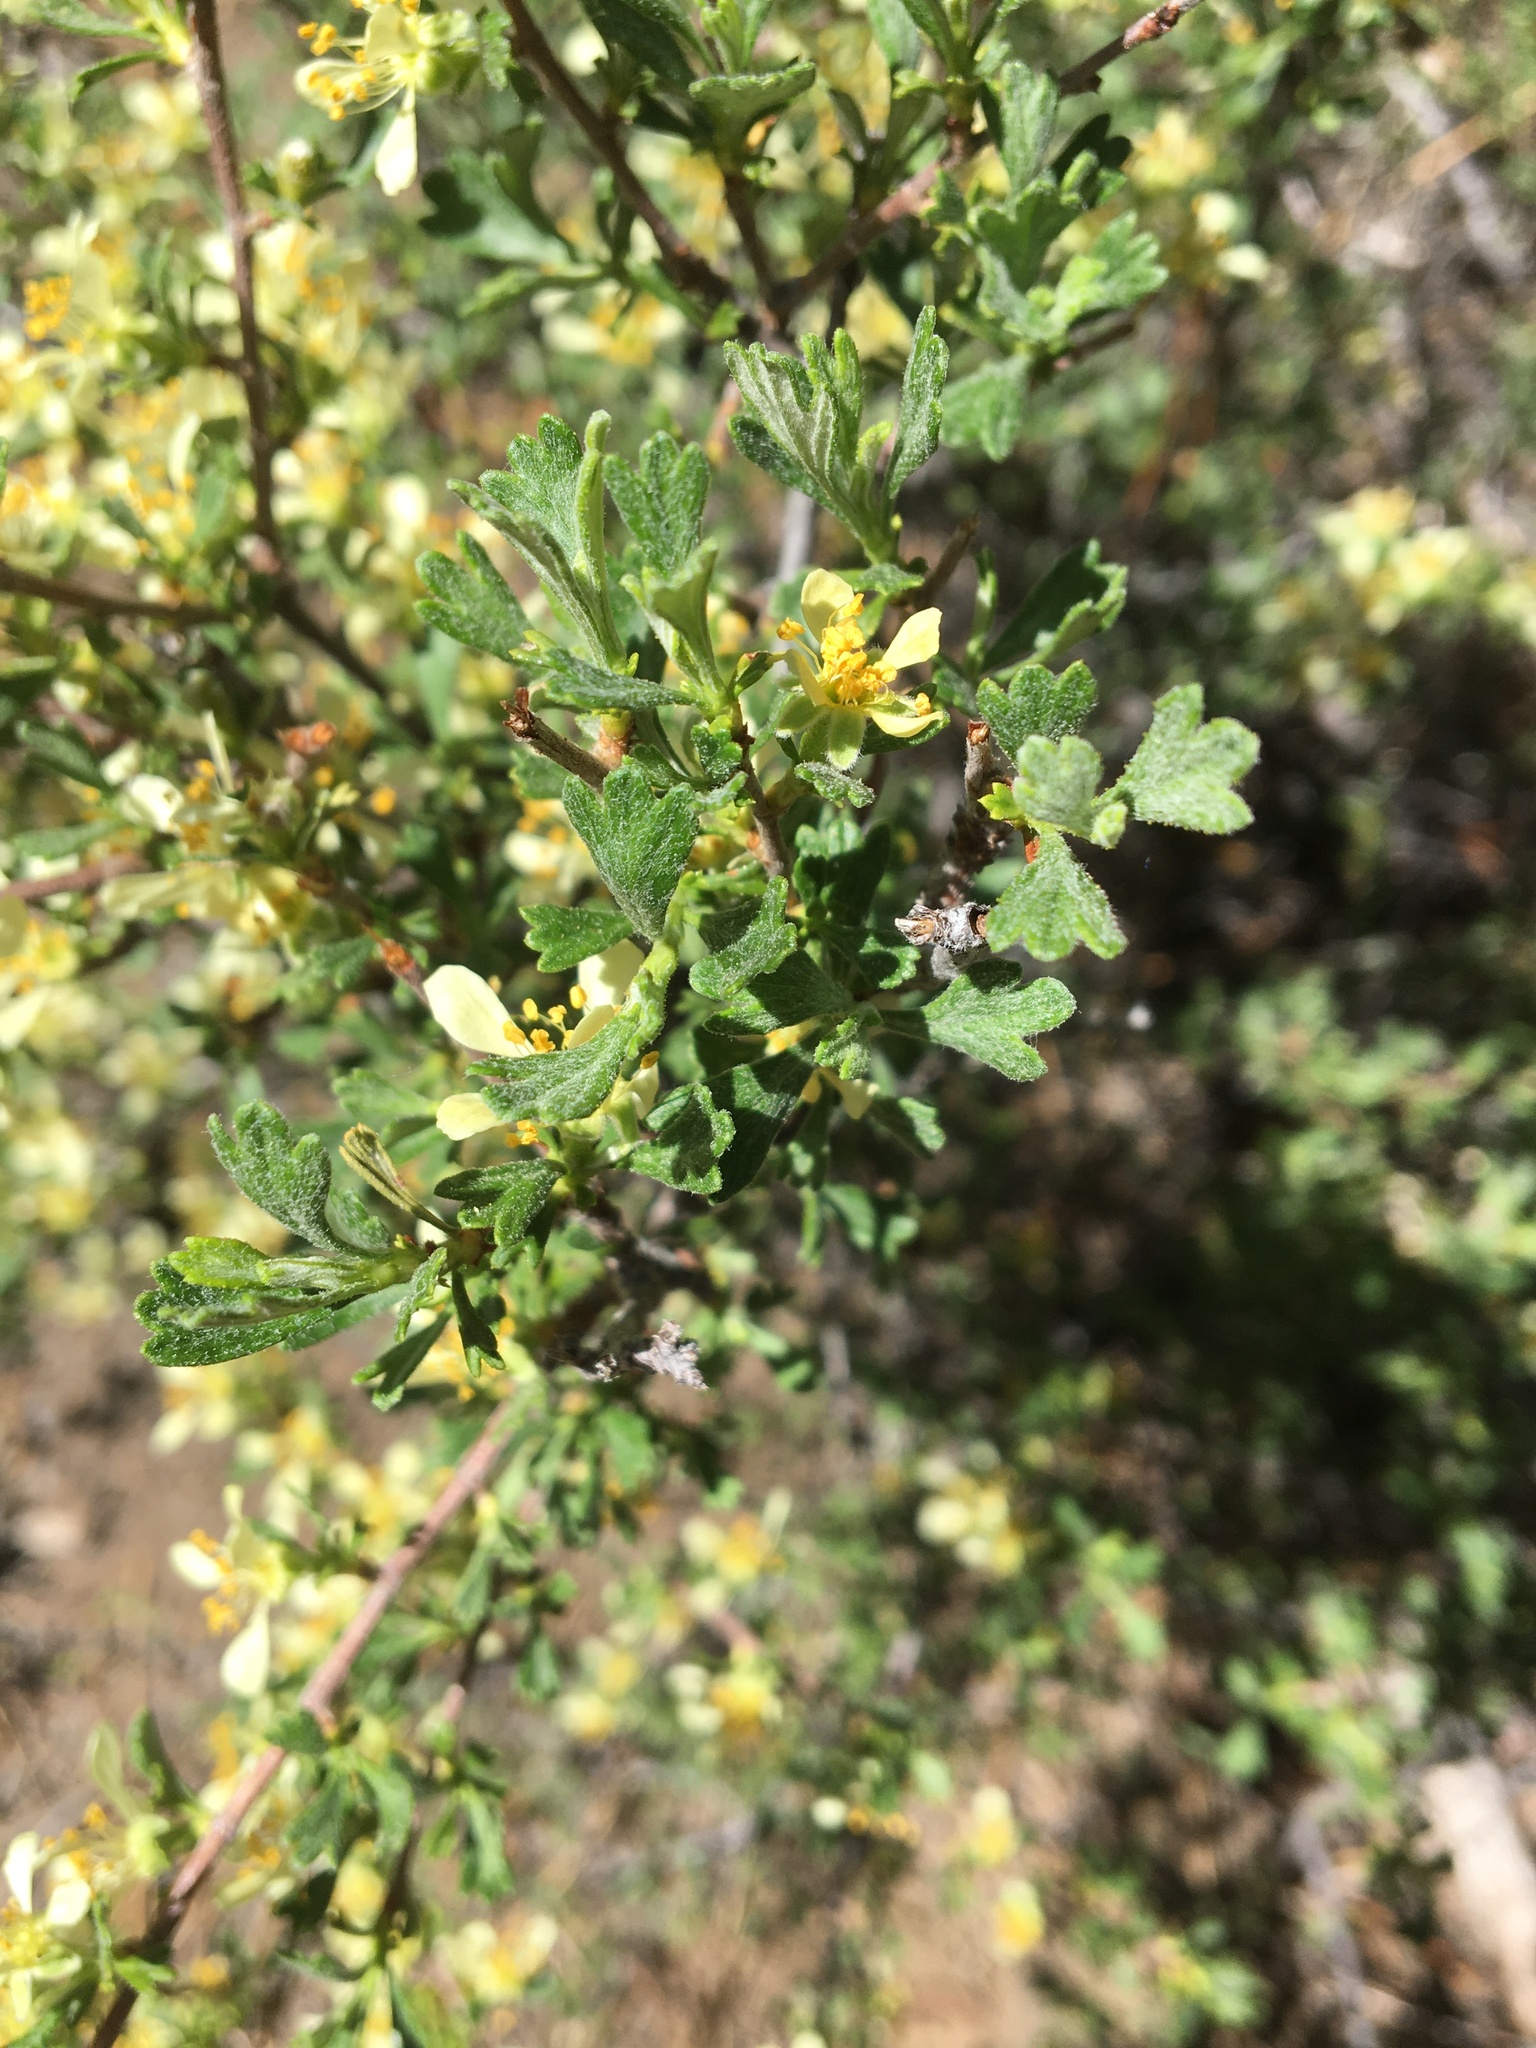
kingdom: Plantae
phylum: Tracheophyta
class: Magnoliopsida
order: Rosales
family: Rosaceae
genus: Purshia
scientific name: Purshia tridentata
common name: Antelope bitterbrush
